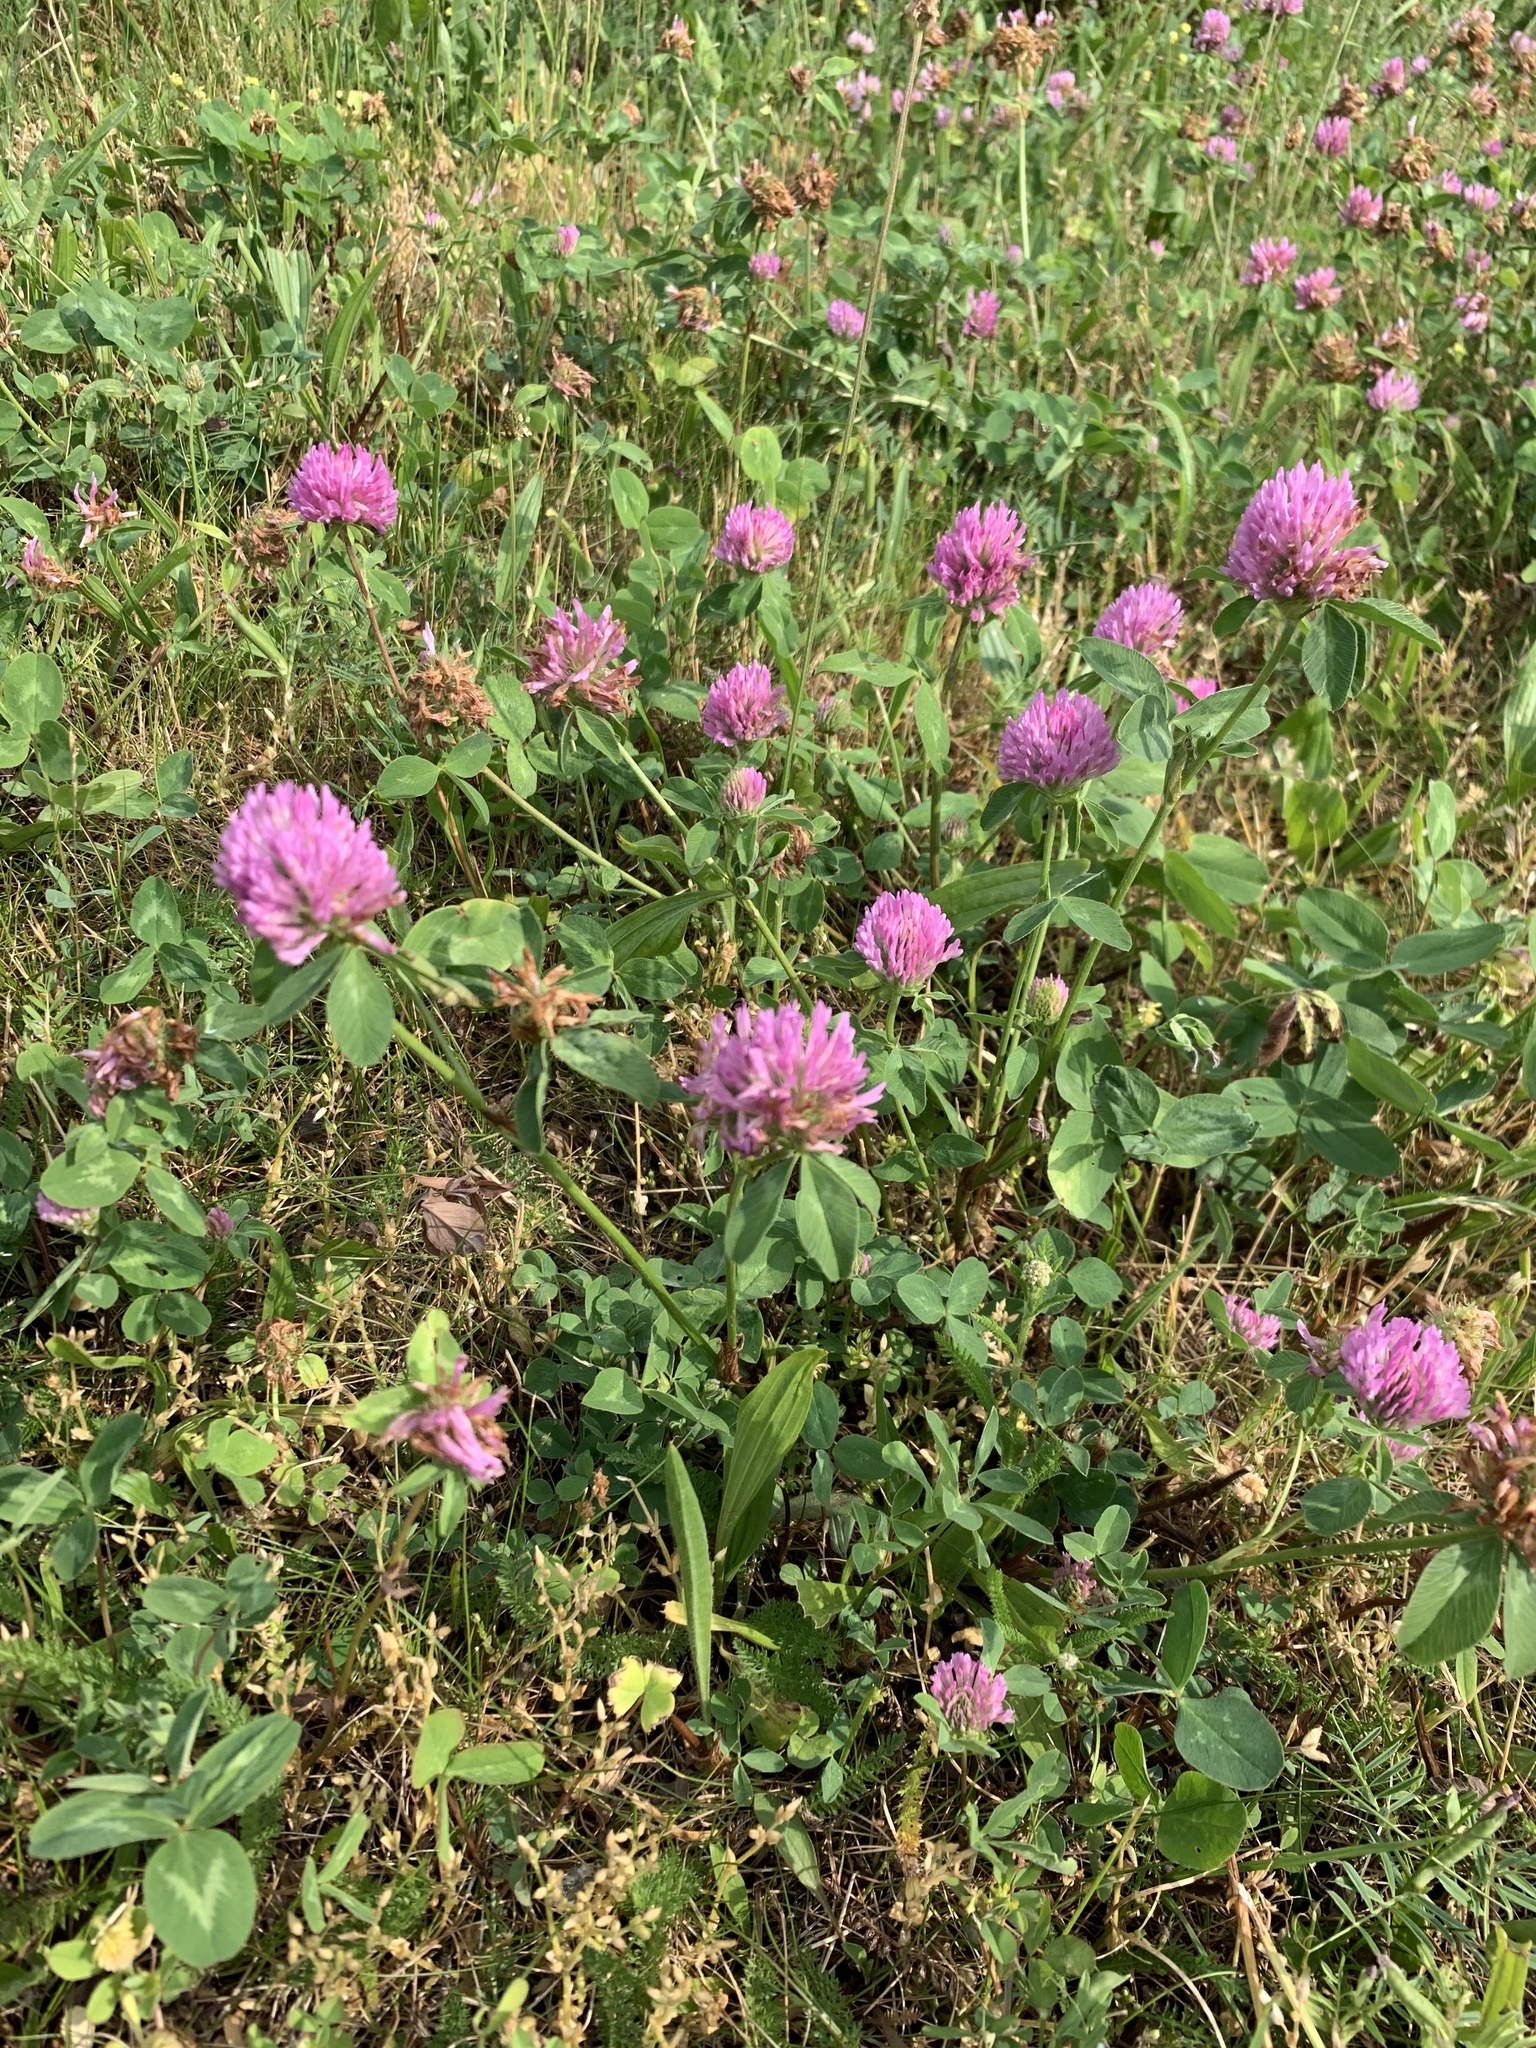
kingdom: Plantae
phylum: Tracheophyta
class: Magnoliopsida
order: Fabales
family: Fabaceae
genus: Trifolium
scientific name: Trifolium pratense
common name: Red clover
